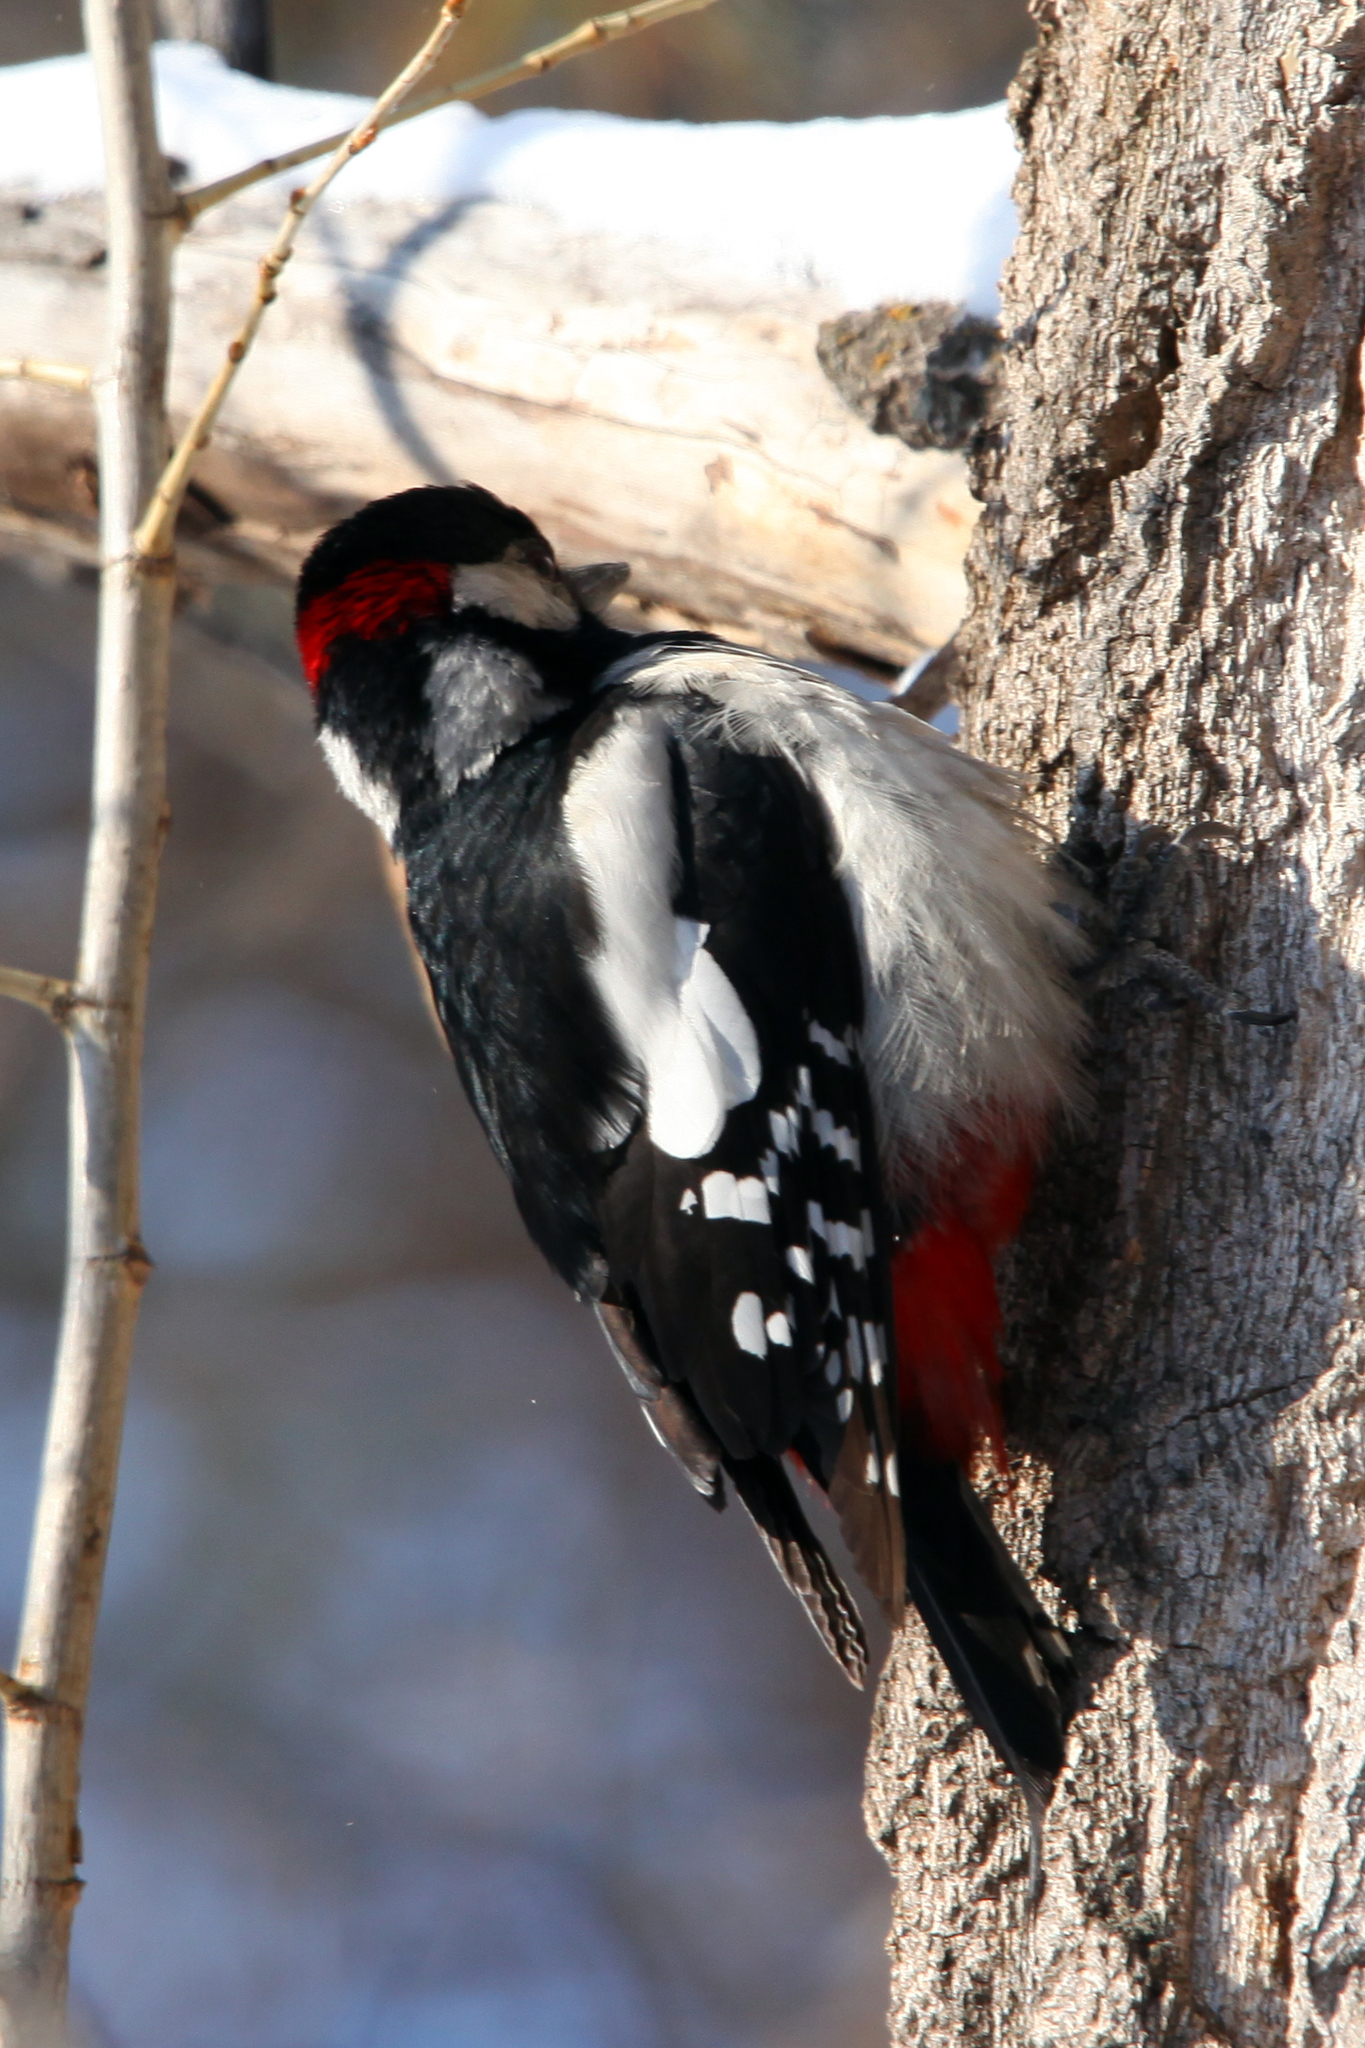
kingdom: Animalia
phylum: Chordata
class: Aves
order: Piciformes
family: Picidae
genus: Dendrocopos
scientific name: Dendrocopos major
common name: Great spotted woodpecker
